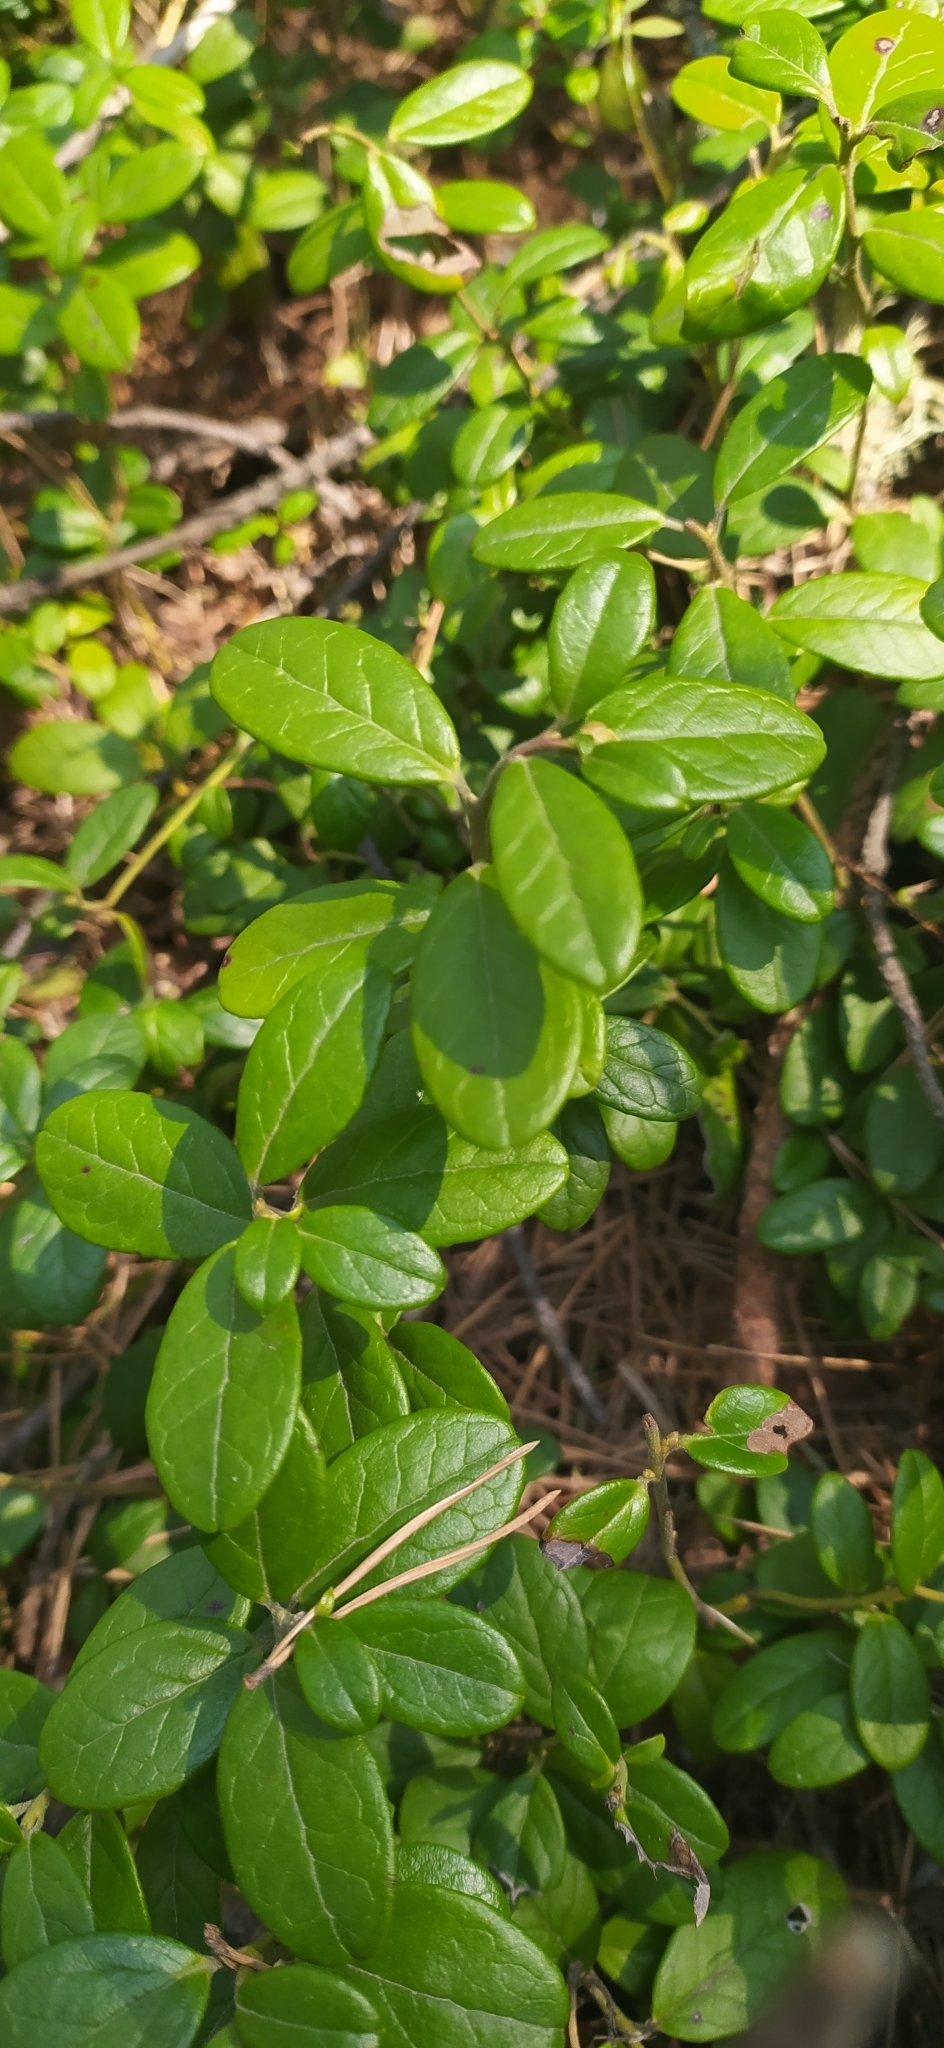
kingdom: Plantae
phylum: Tracheophyta
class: Magnoliopsida
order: Ericales
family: Ericaceae
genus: Vaccinium
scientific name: Vaccinium vitis-idaea
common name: Cowberry
